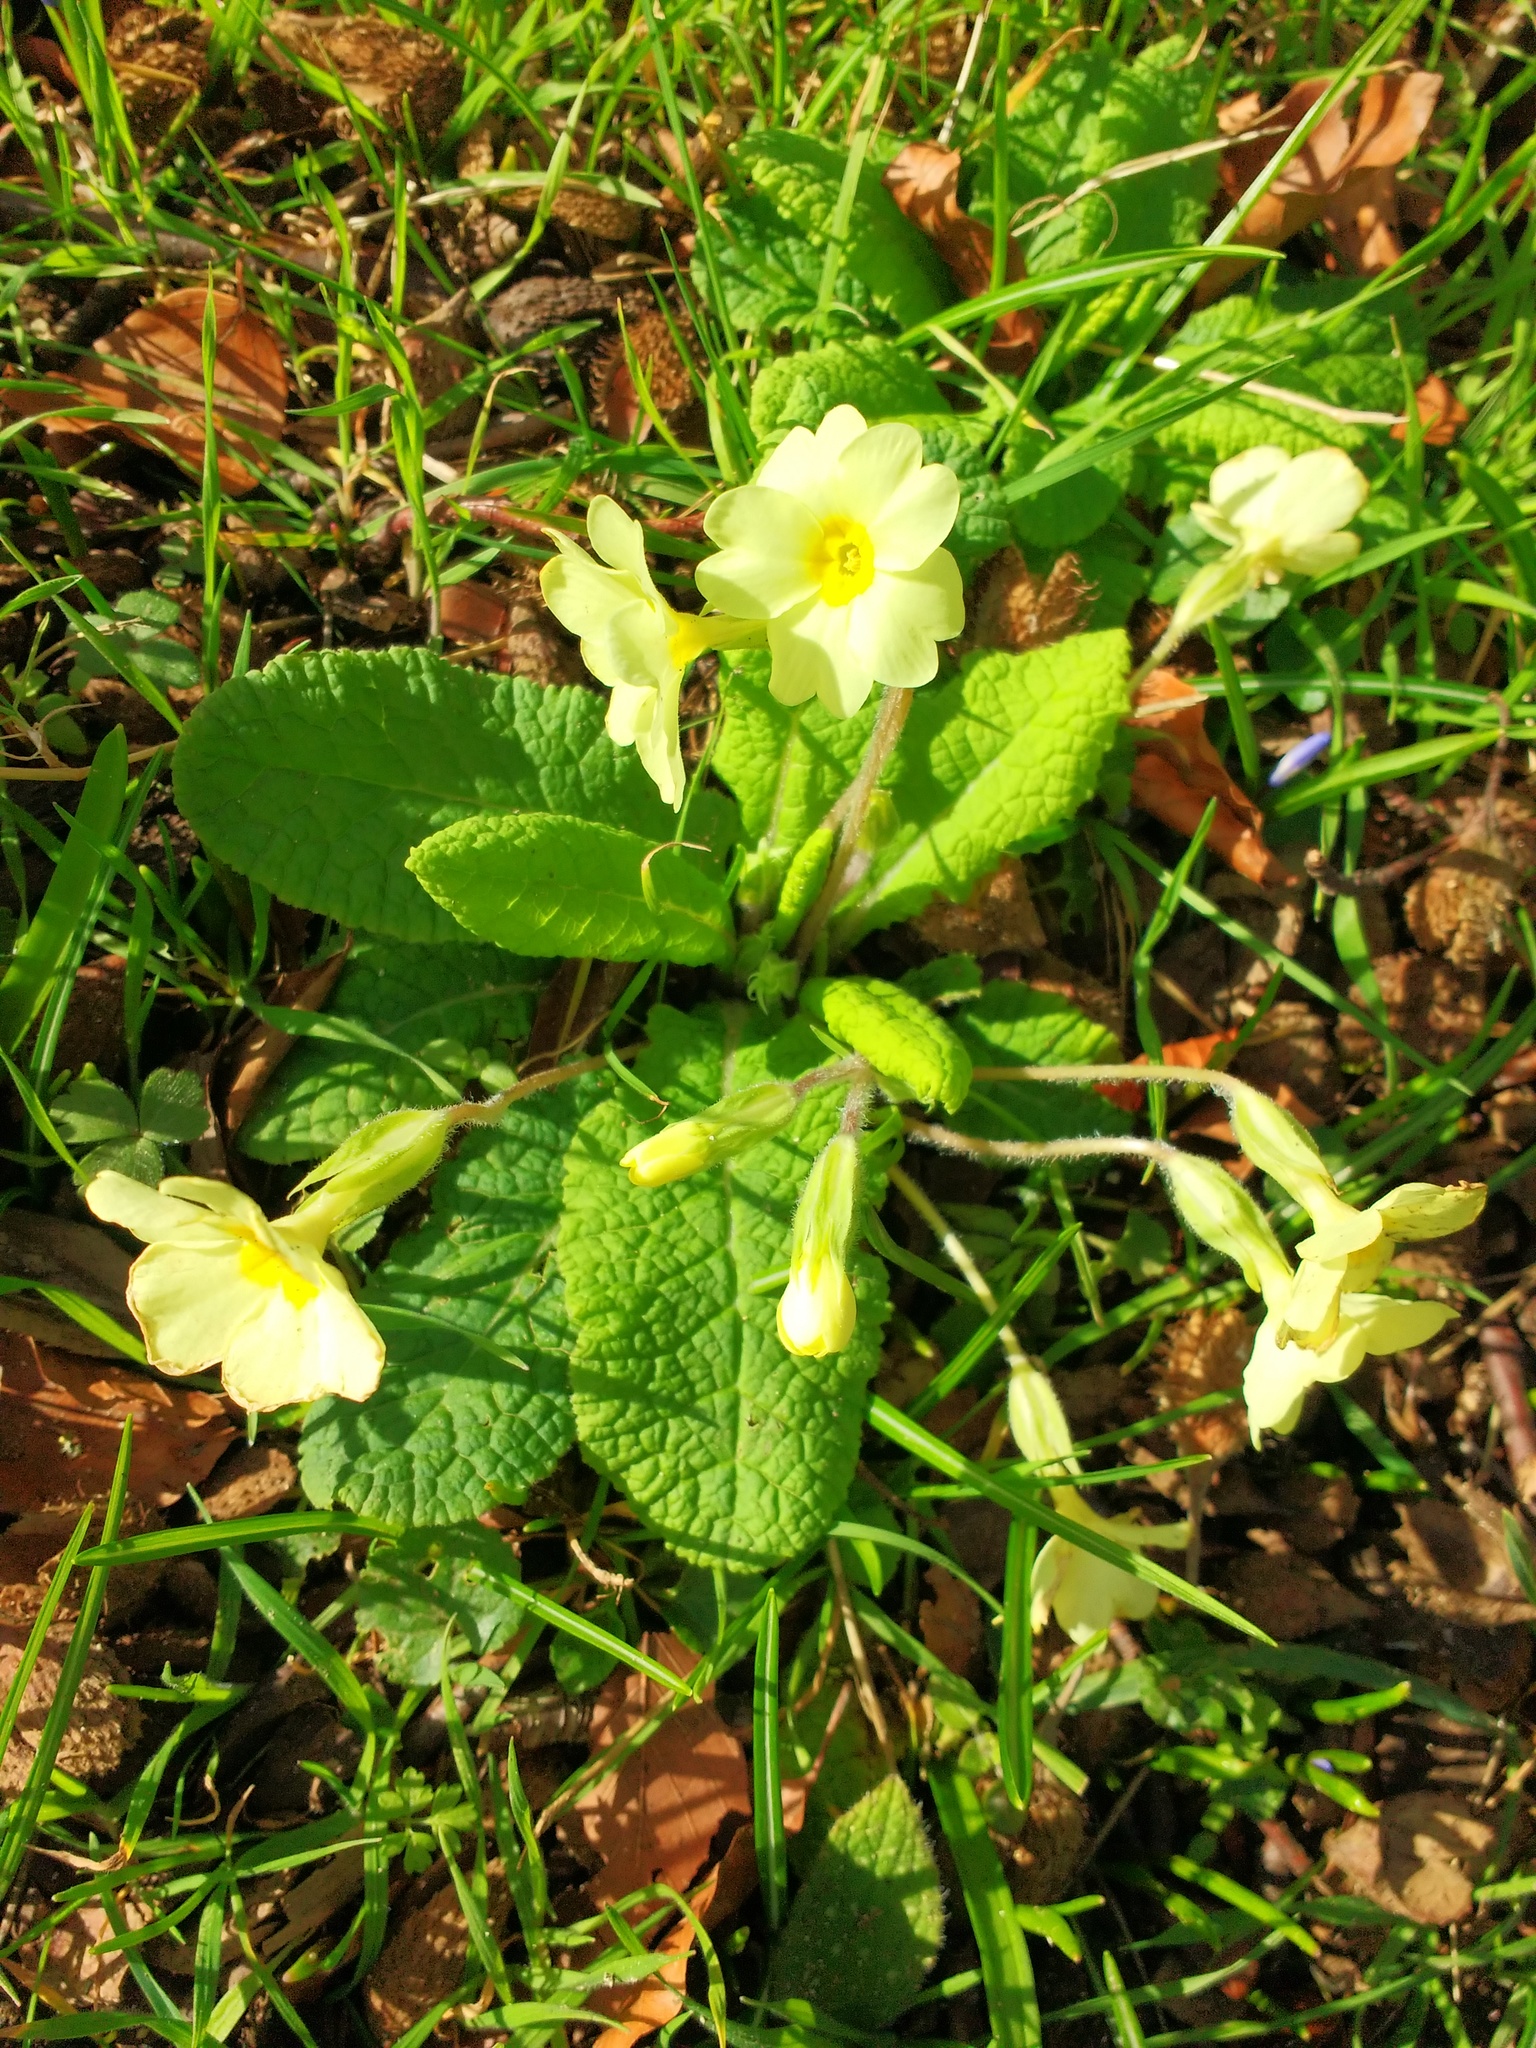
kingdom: Plantae
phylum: Tracheophyta
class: Magnoliopsida
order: Ericales
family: Primulaceae
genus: Primula
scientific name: Primula vulgaris
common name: Primrose
